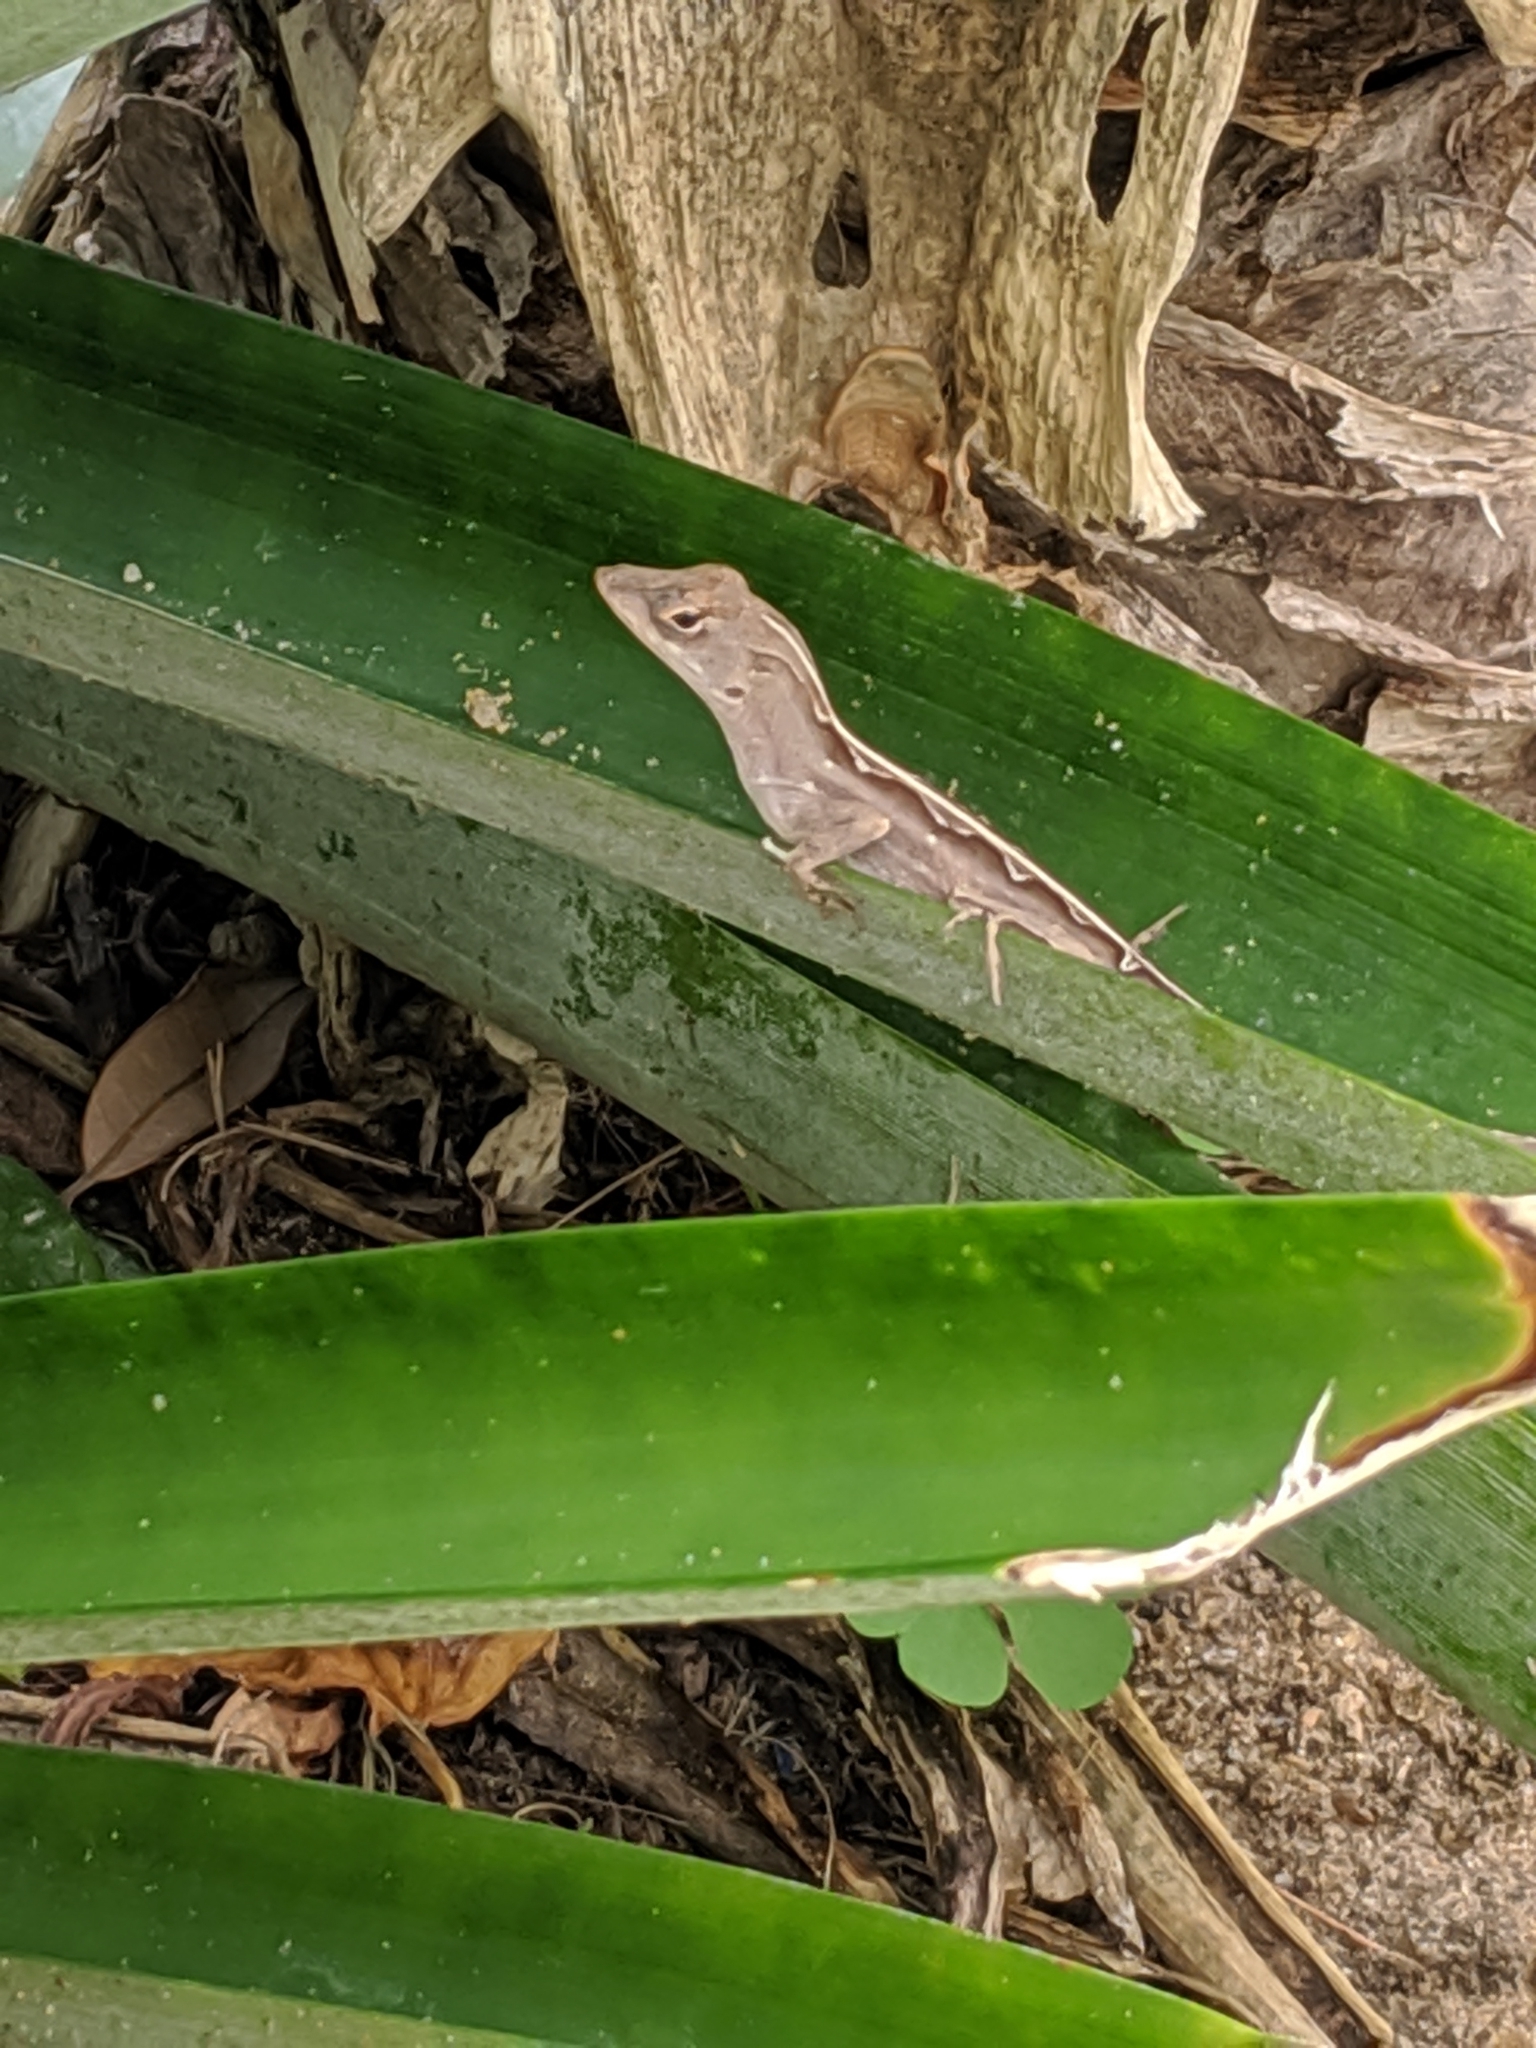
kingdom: Animalia
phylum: Chordata
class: Squamata
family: Dactyloidae
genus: Anolis
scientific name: Anolis sagrei
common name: Brown anole
